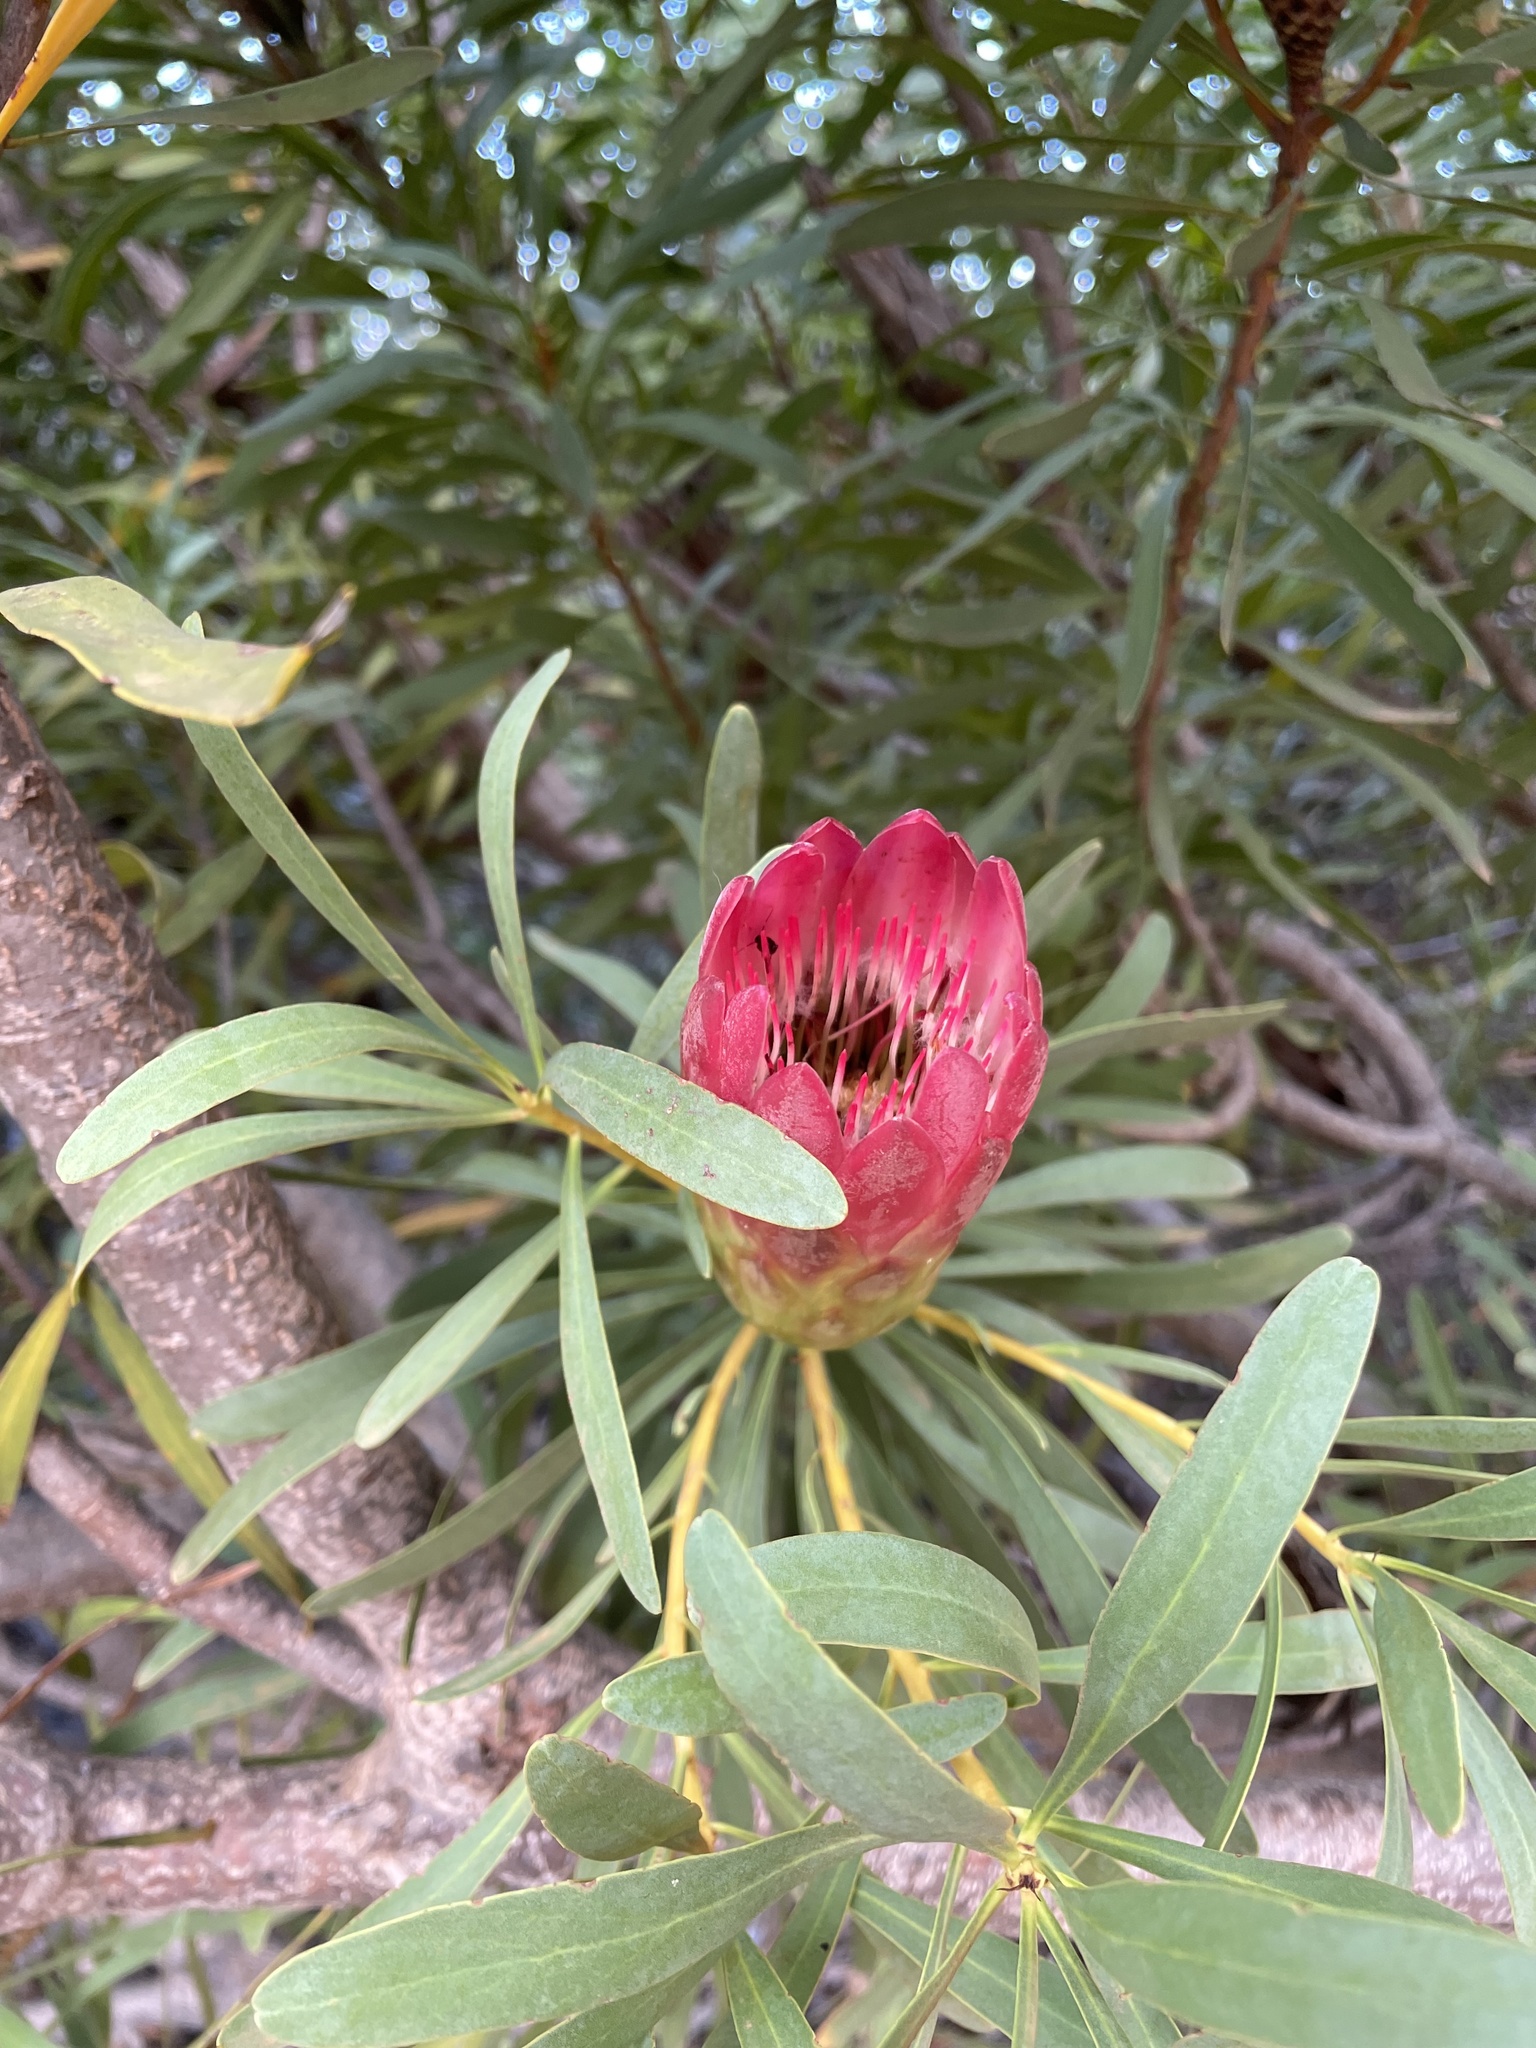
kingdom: Plantae
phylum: Tracheophyta
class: Magnoliopsida
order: Proteales
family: Proteaceae
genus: Protea
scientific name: Protea repens
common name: Sugarbush
